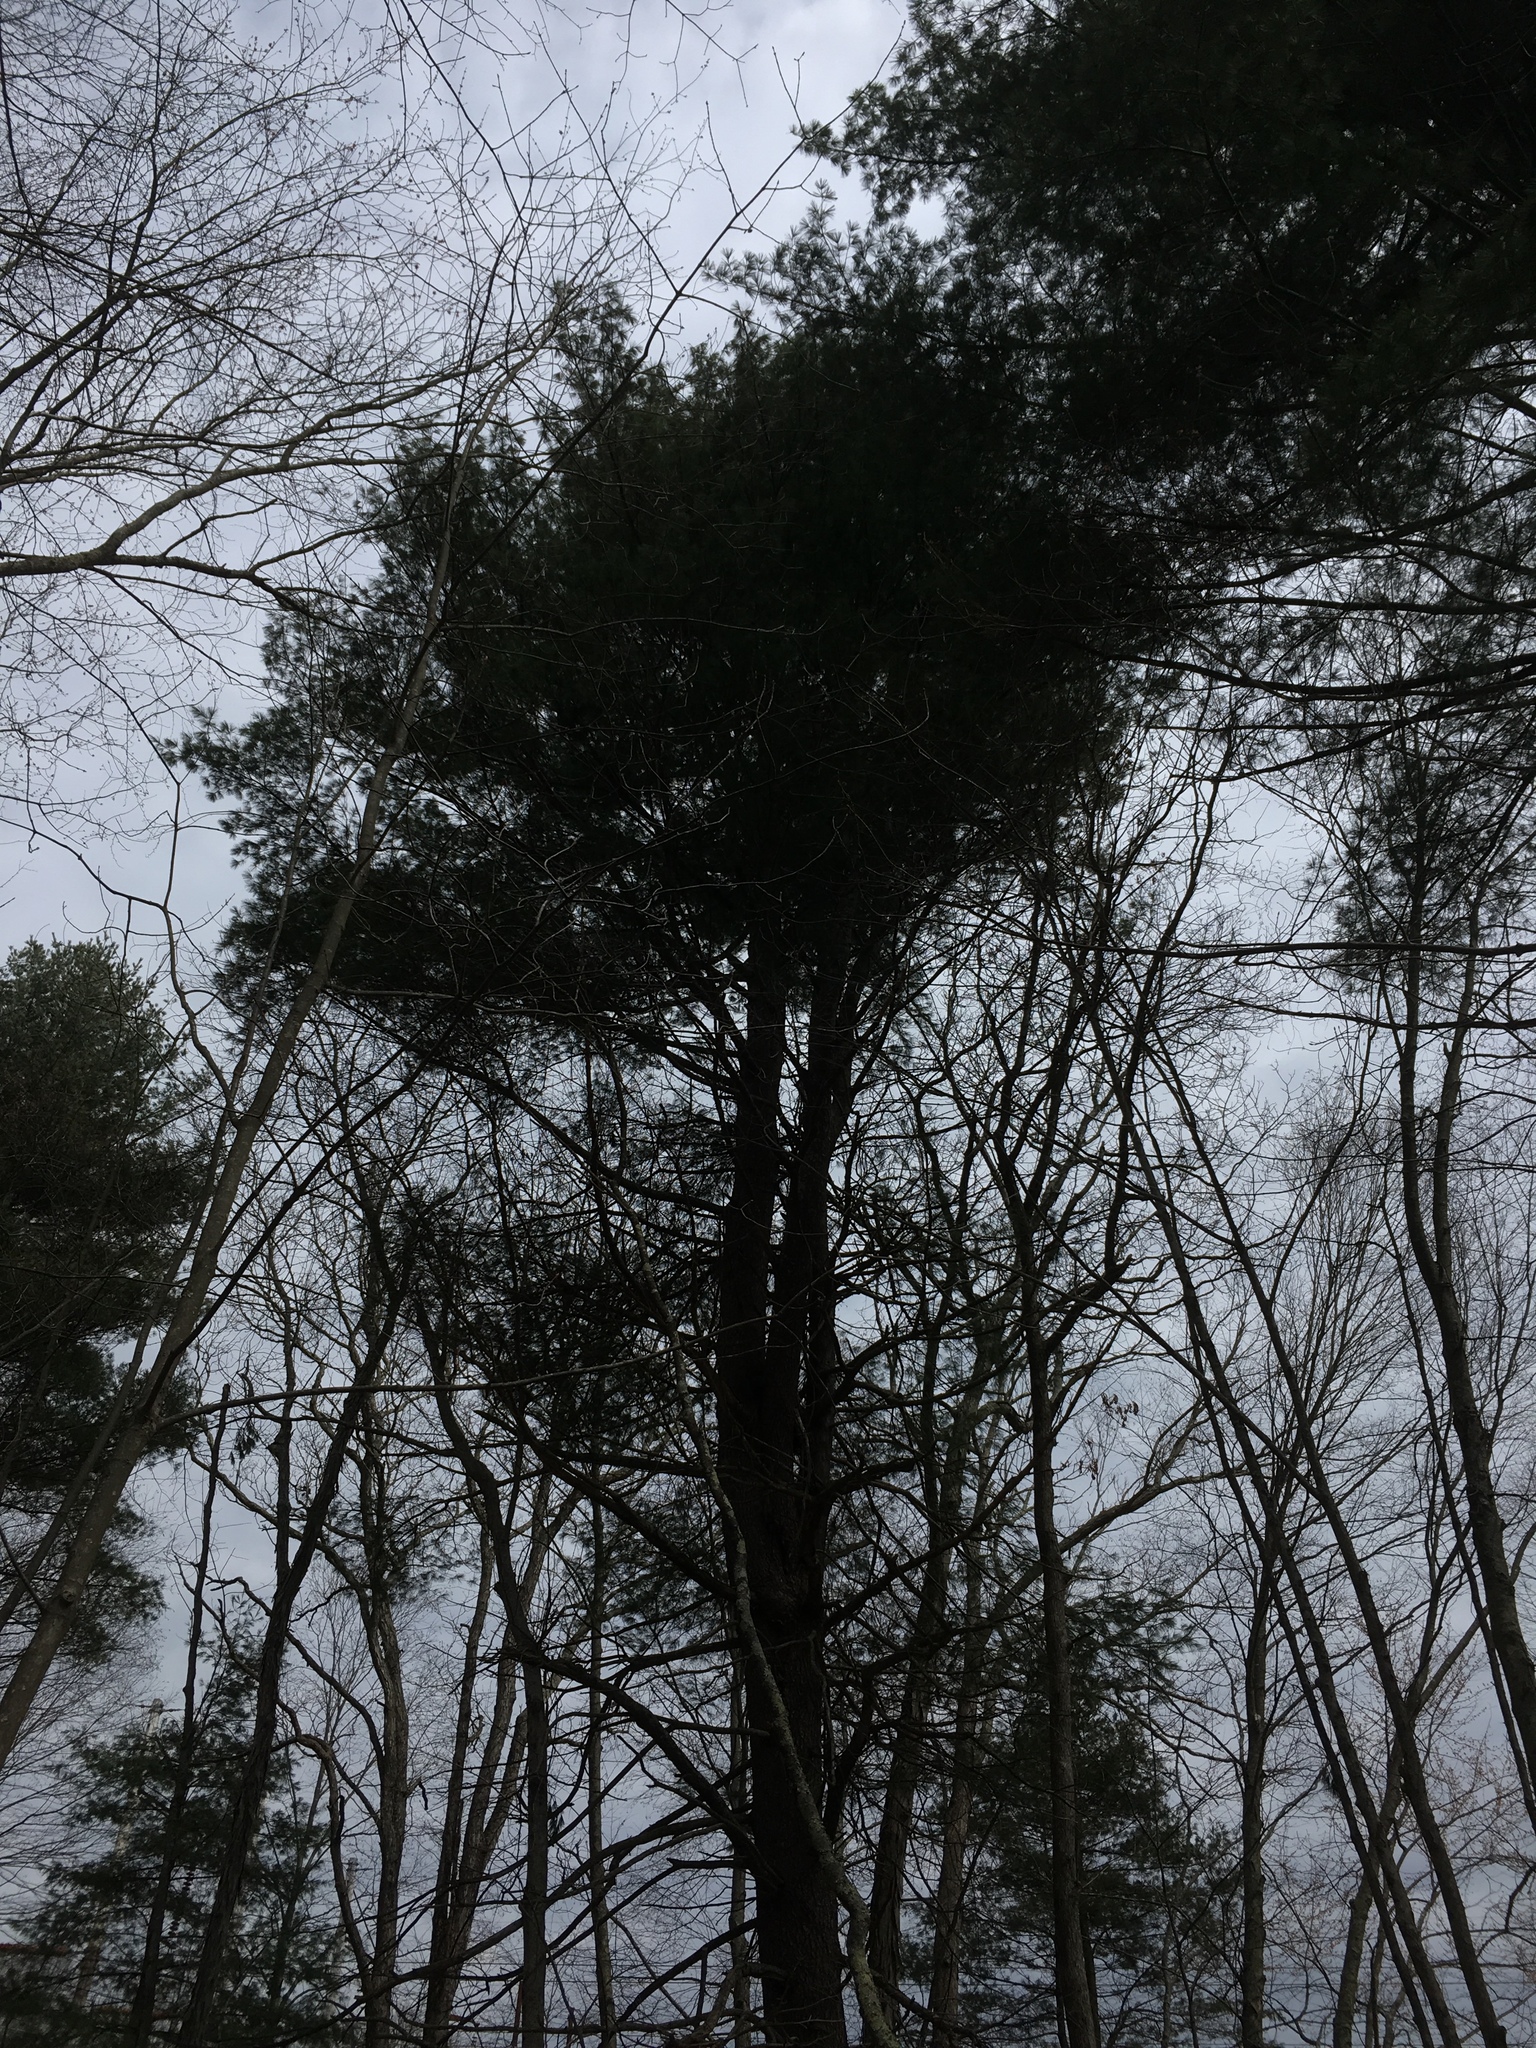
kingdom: Plantae
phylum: Tracheophyta
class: Pinopsida
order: Pinales
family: Pinaceae
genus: Pinus
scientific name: Pinus strobus
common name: Weymouth pine
